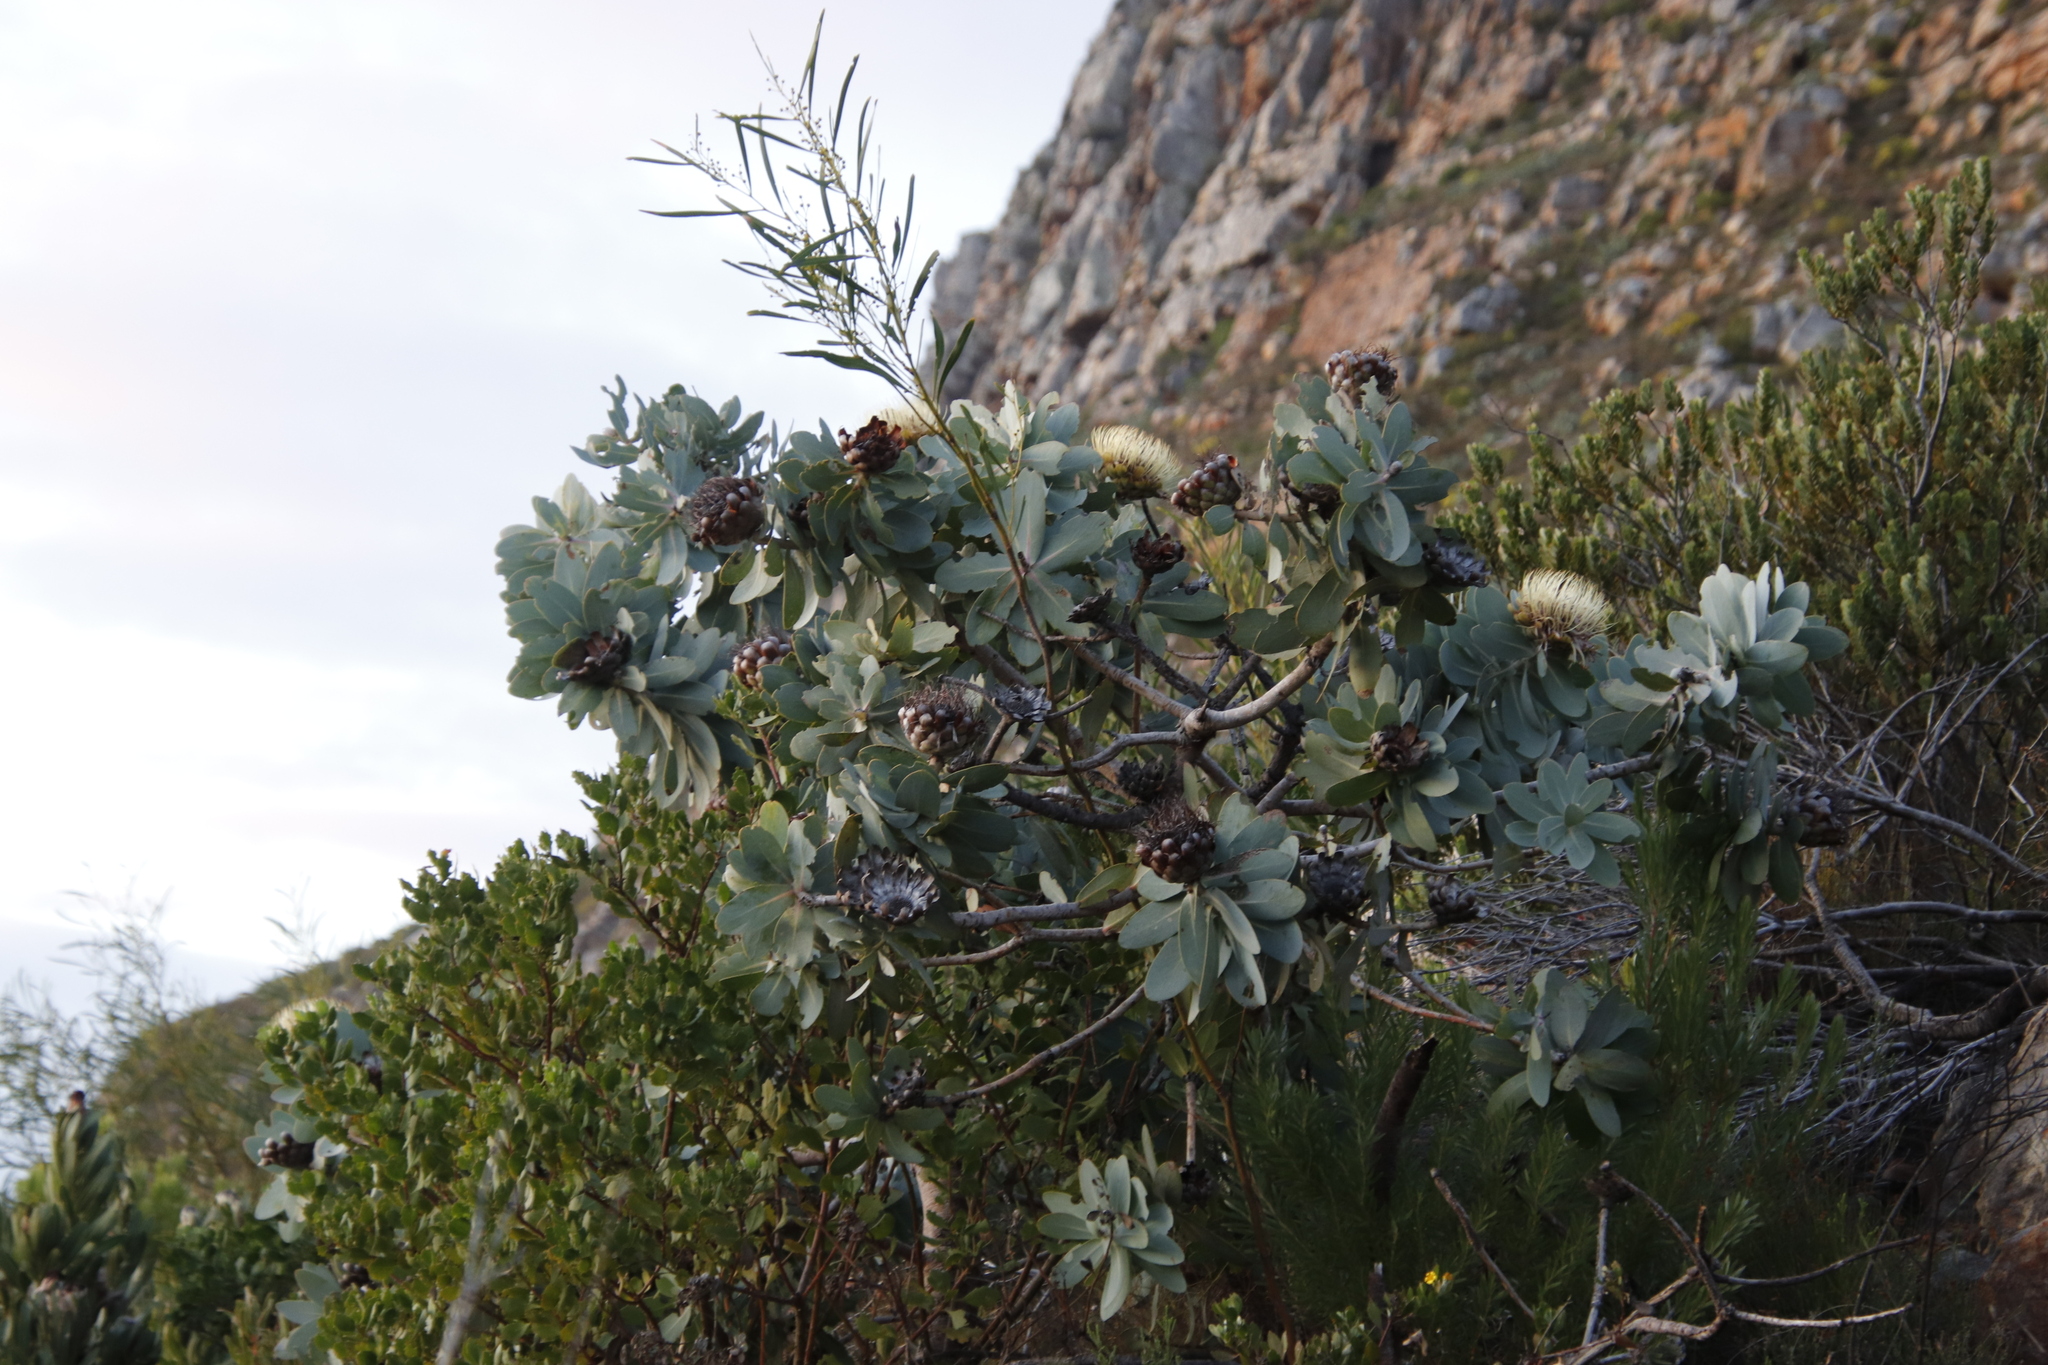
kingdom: Plantae
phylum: Tracheophyta
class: Magnoliopsida
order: Proteales
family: Proteaceae
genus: Protea
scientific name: Protea nitida
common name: Tree protea
